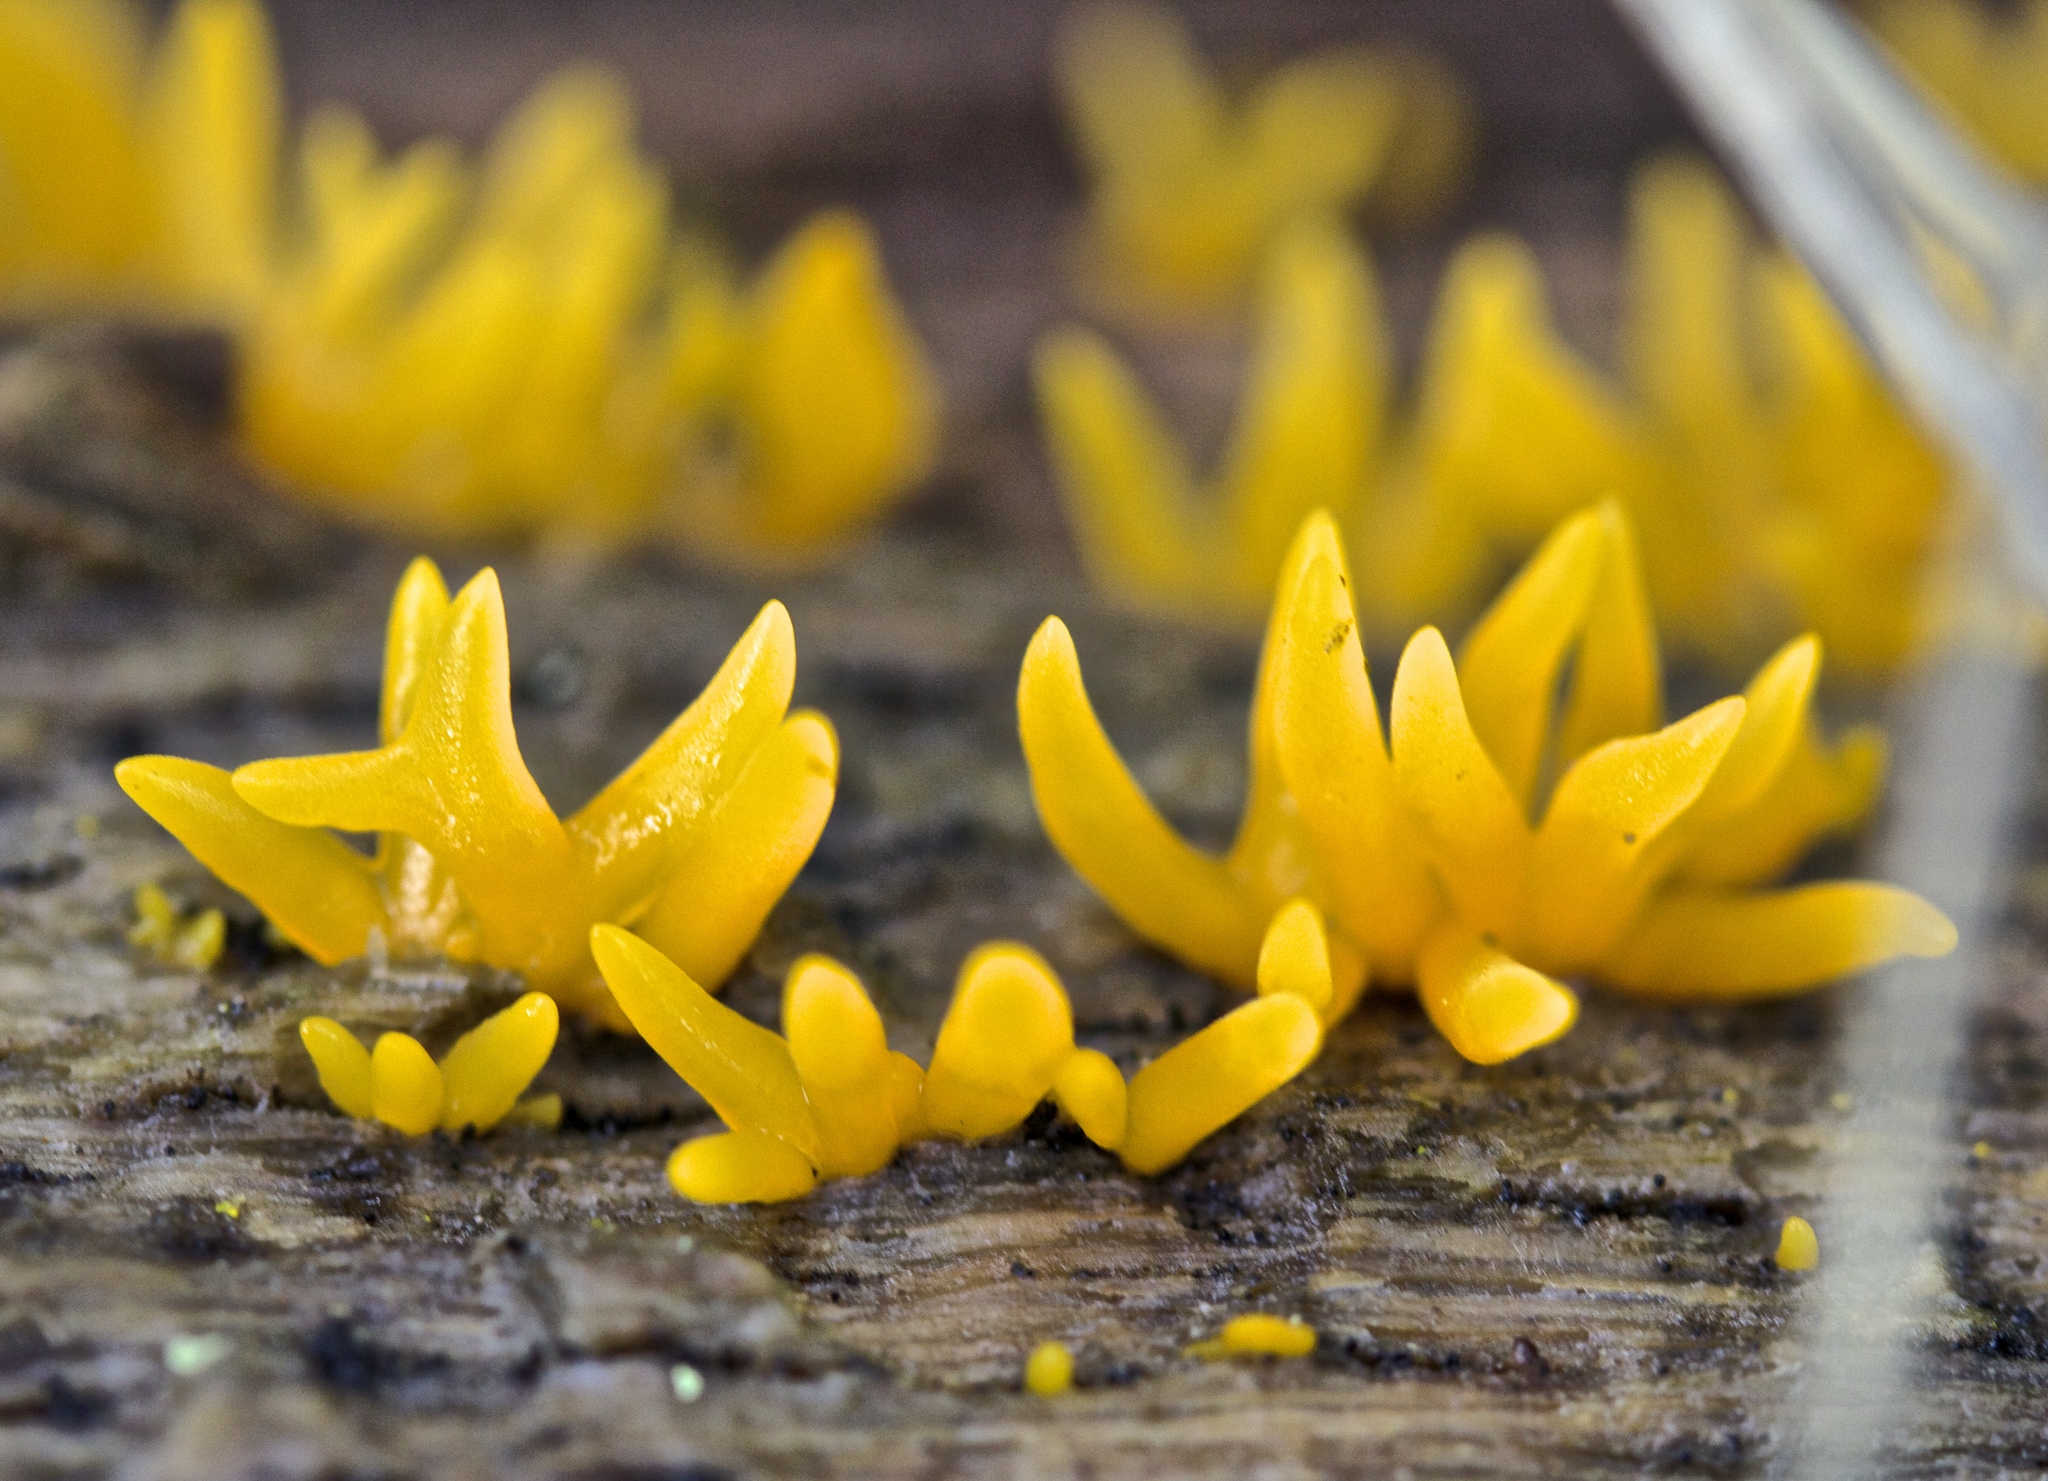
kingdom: Fungi
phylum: Basidiomycota
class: Dacrymycetes
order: Dacrymycetales
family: Dacrymycetaceae
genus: Calocera
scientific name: Calocera cornea
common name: Small stagshorn
